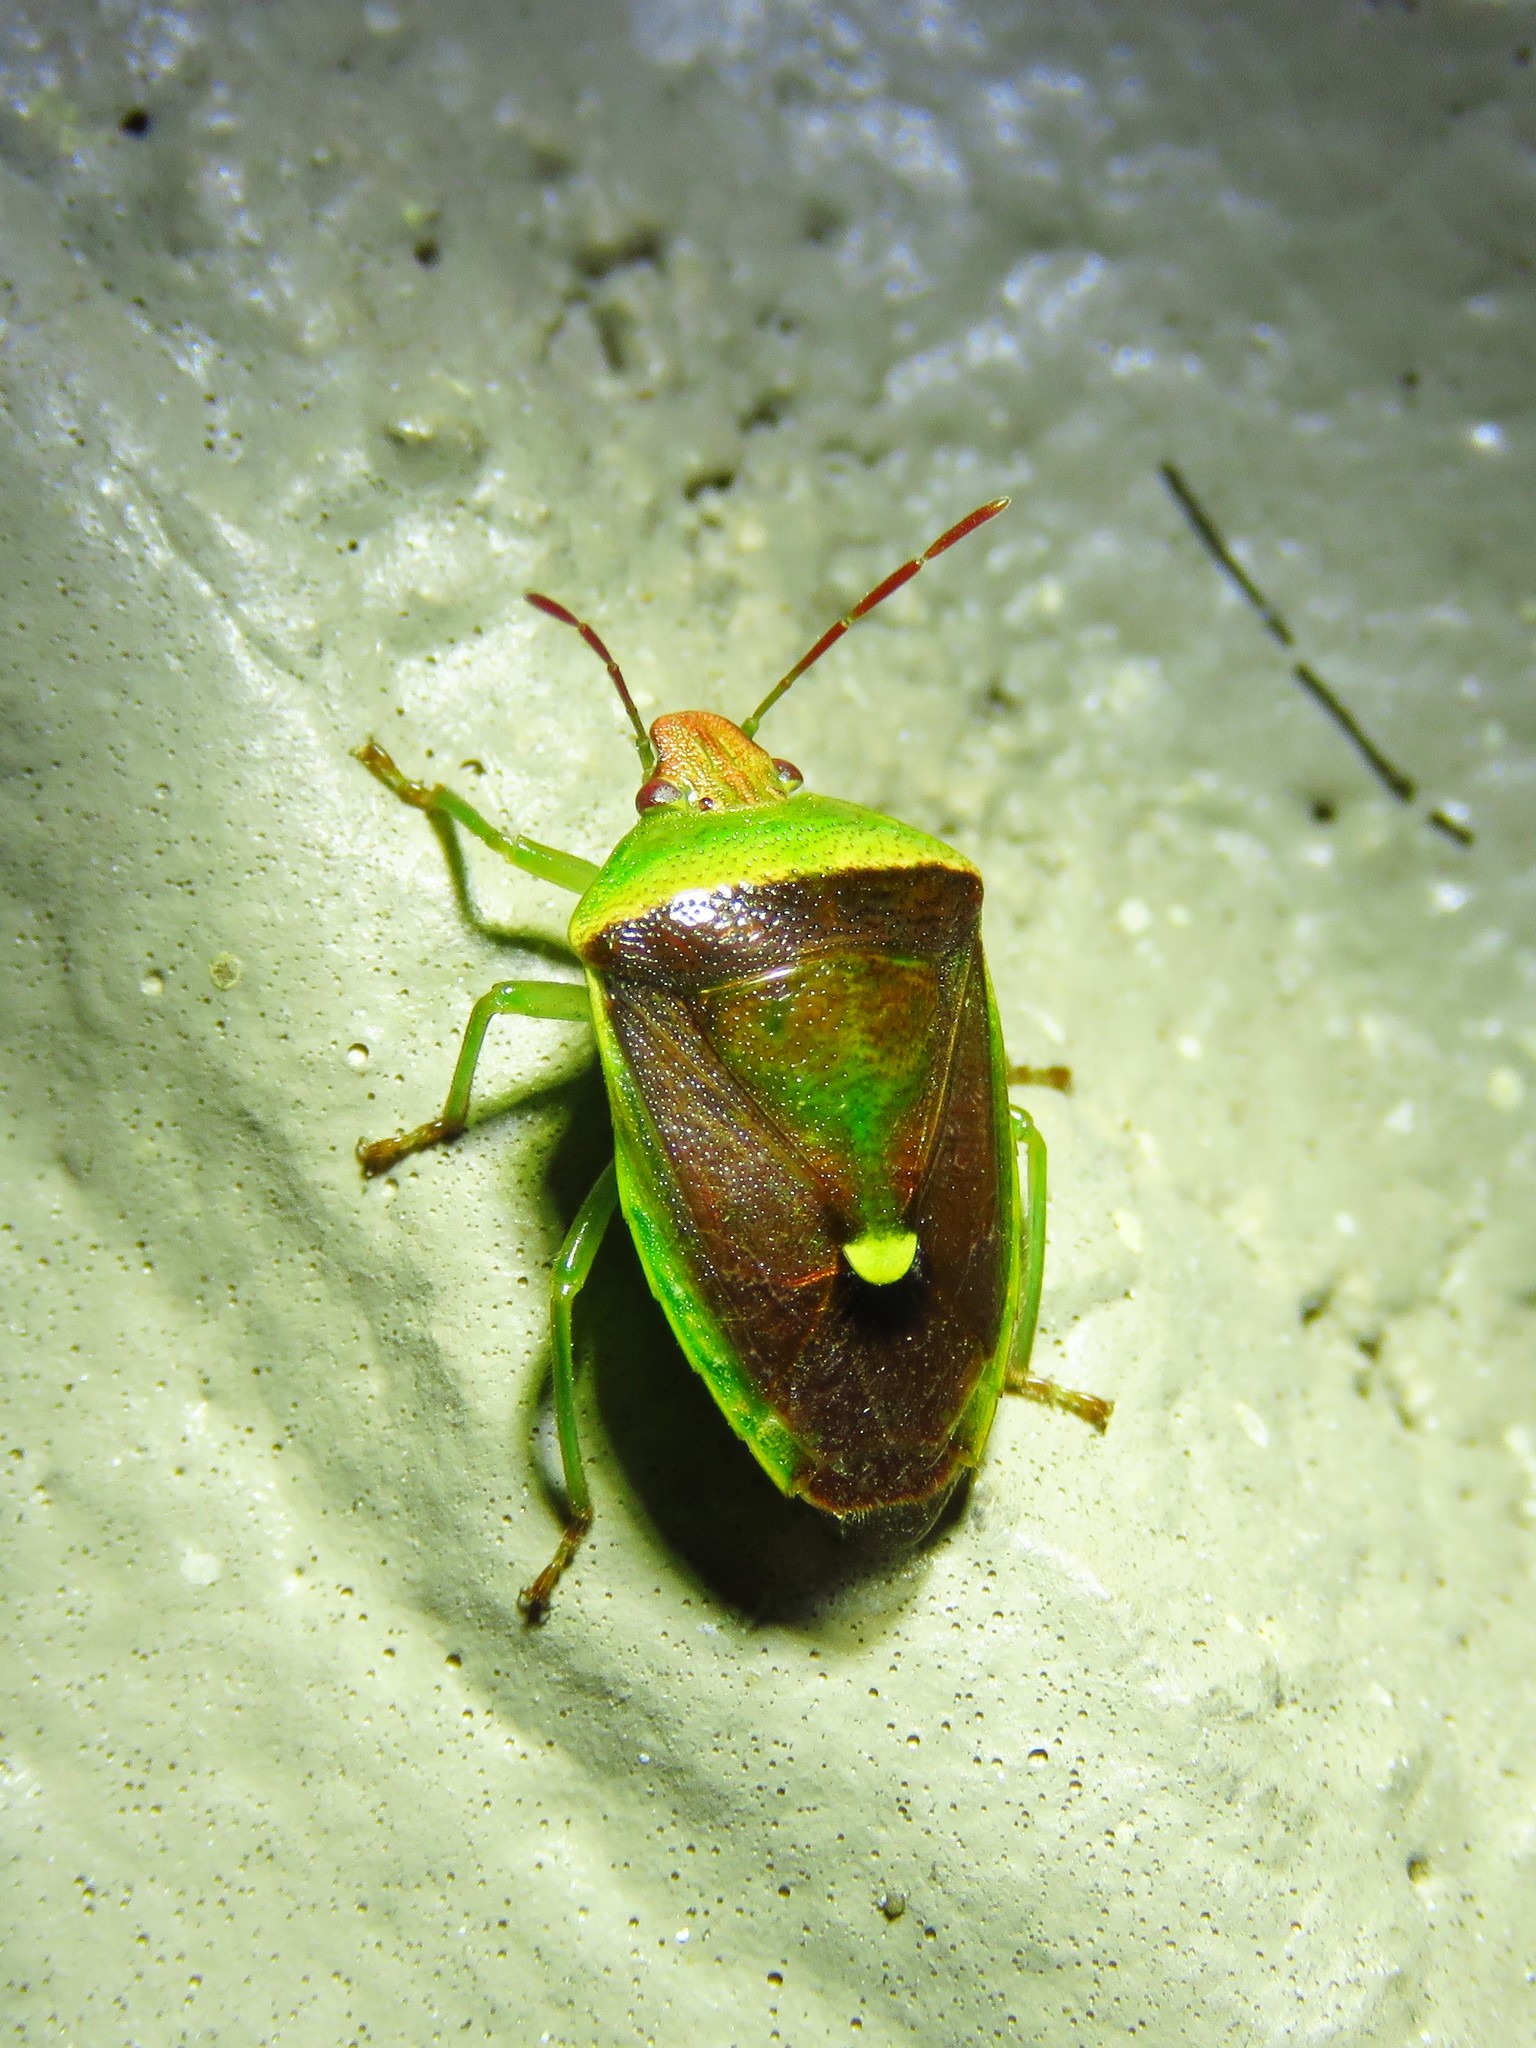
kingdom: Animalia
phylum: Arthropoda
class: Insecta
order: Hemiptera
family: Pentatomidae
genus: Banasa
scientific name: Banasa dimidiata
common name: Green burgundy stink bug
